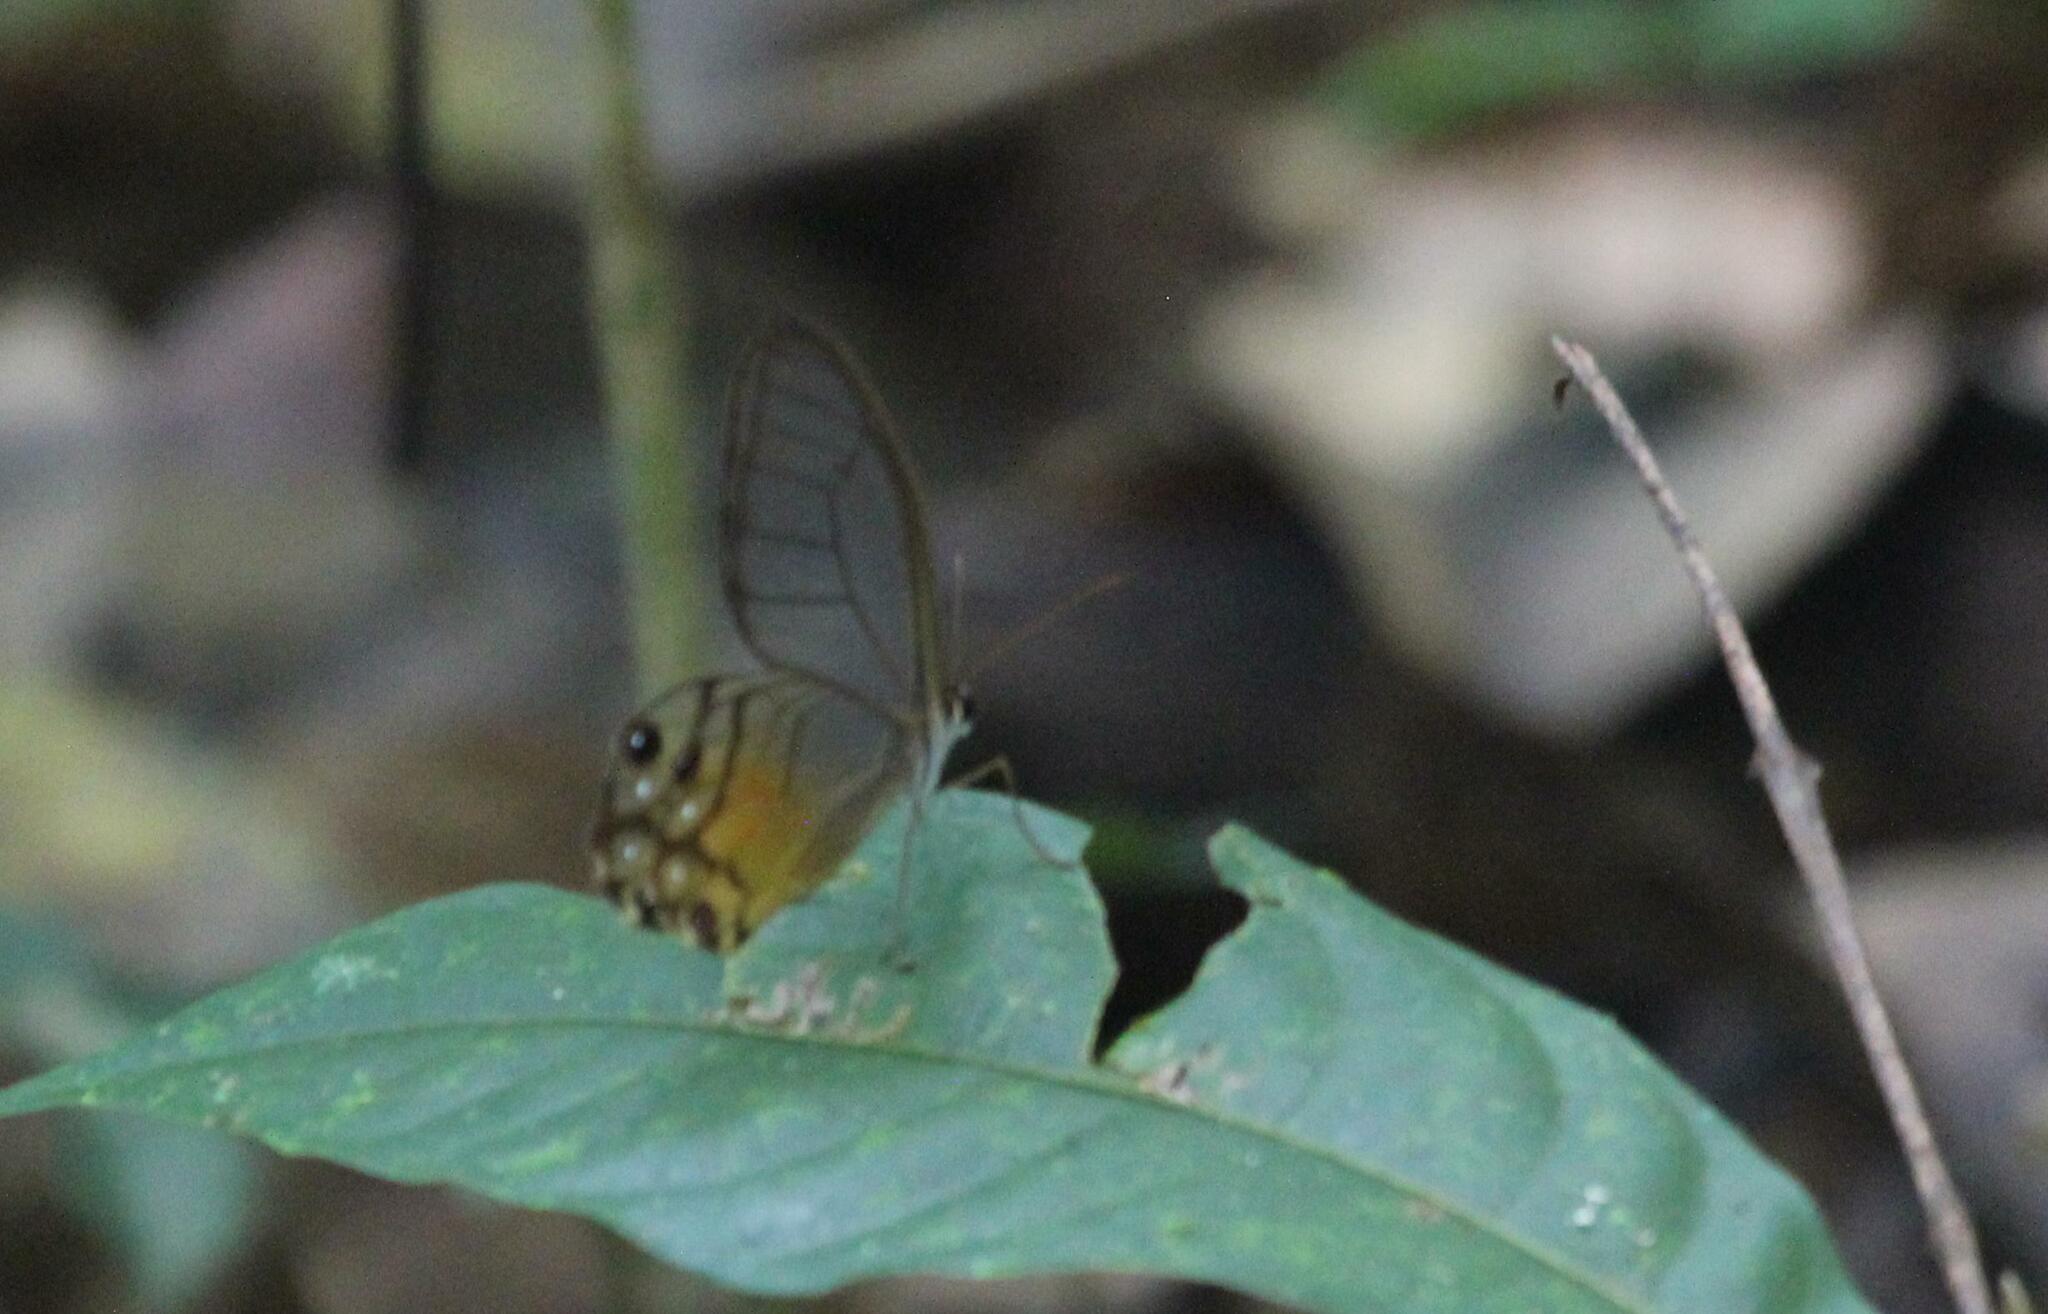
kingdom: Animalia
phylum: Arthropoda
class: Insecta
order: Lepidoptera
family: Nymphalidae
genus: Haetera
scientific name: Haetera piera
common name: Amber phantom
